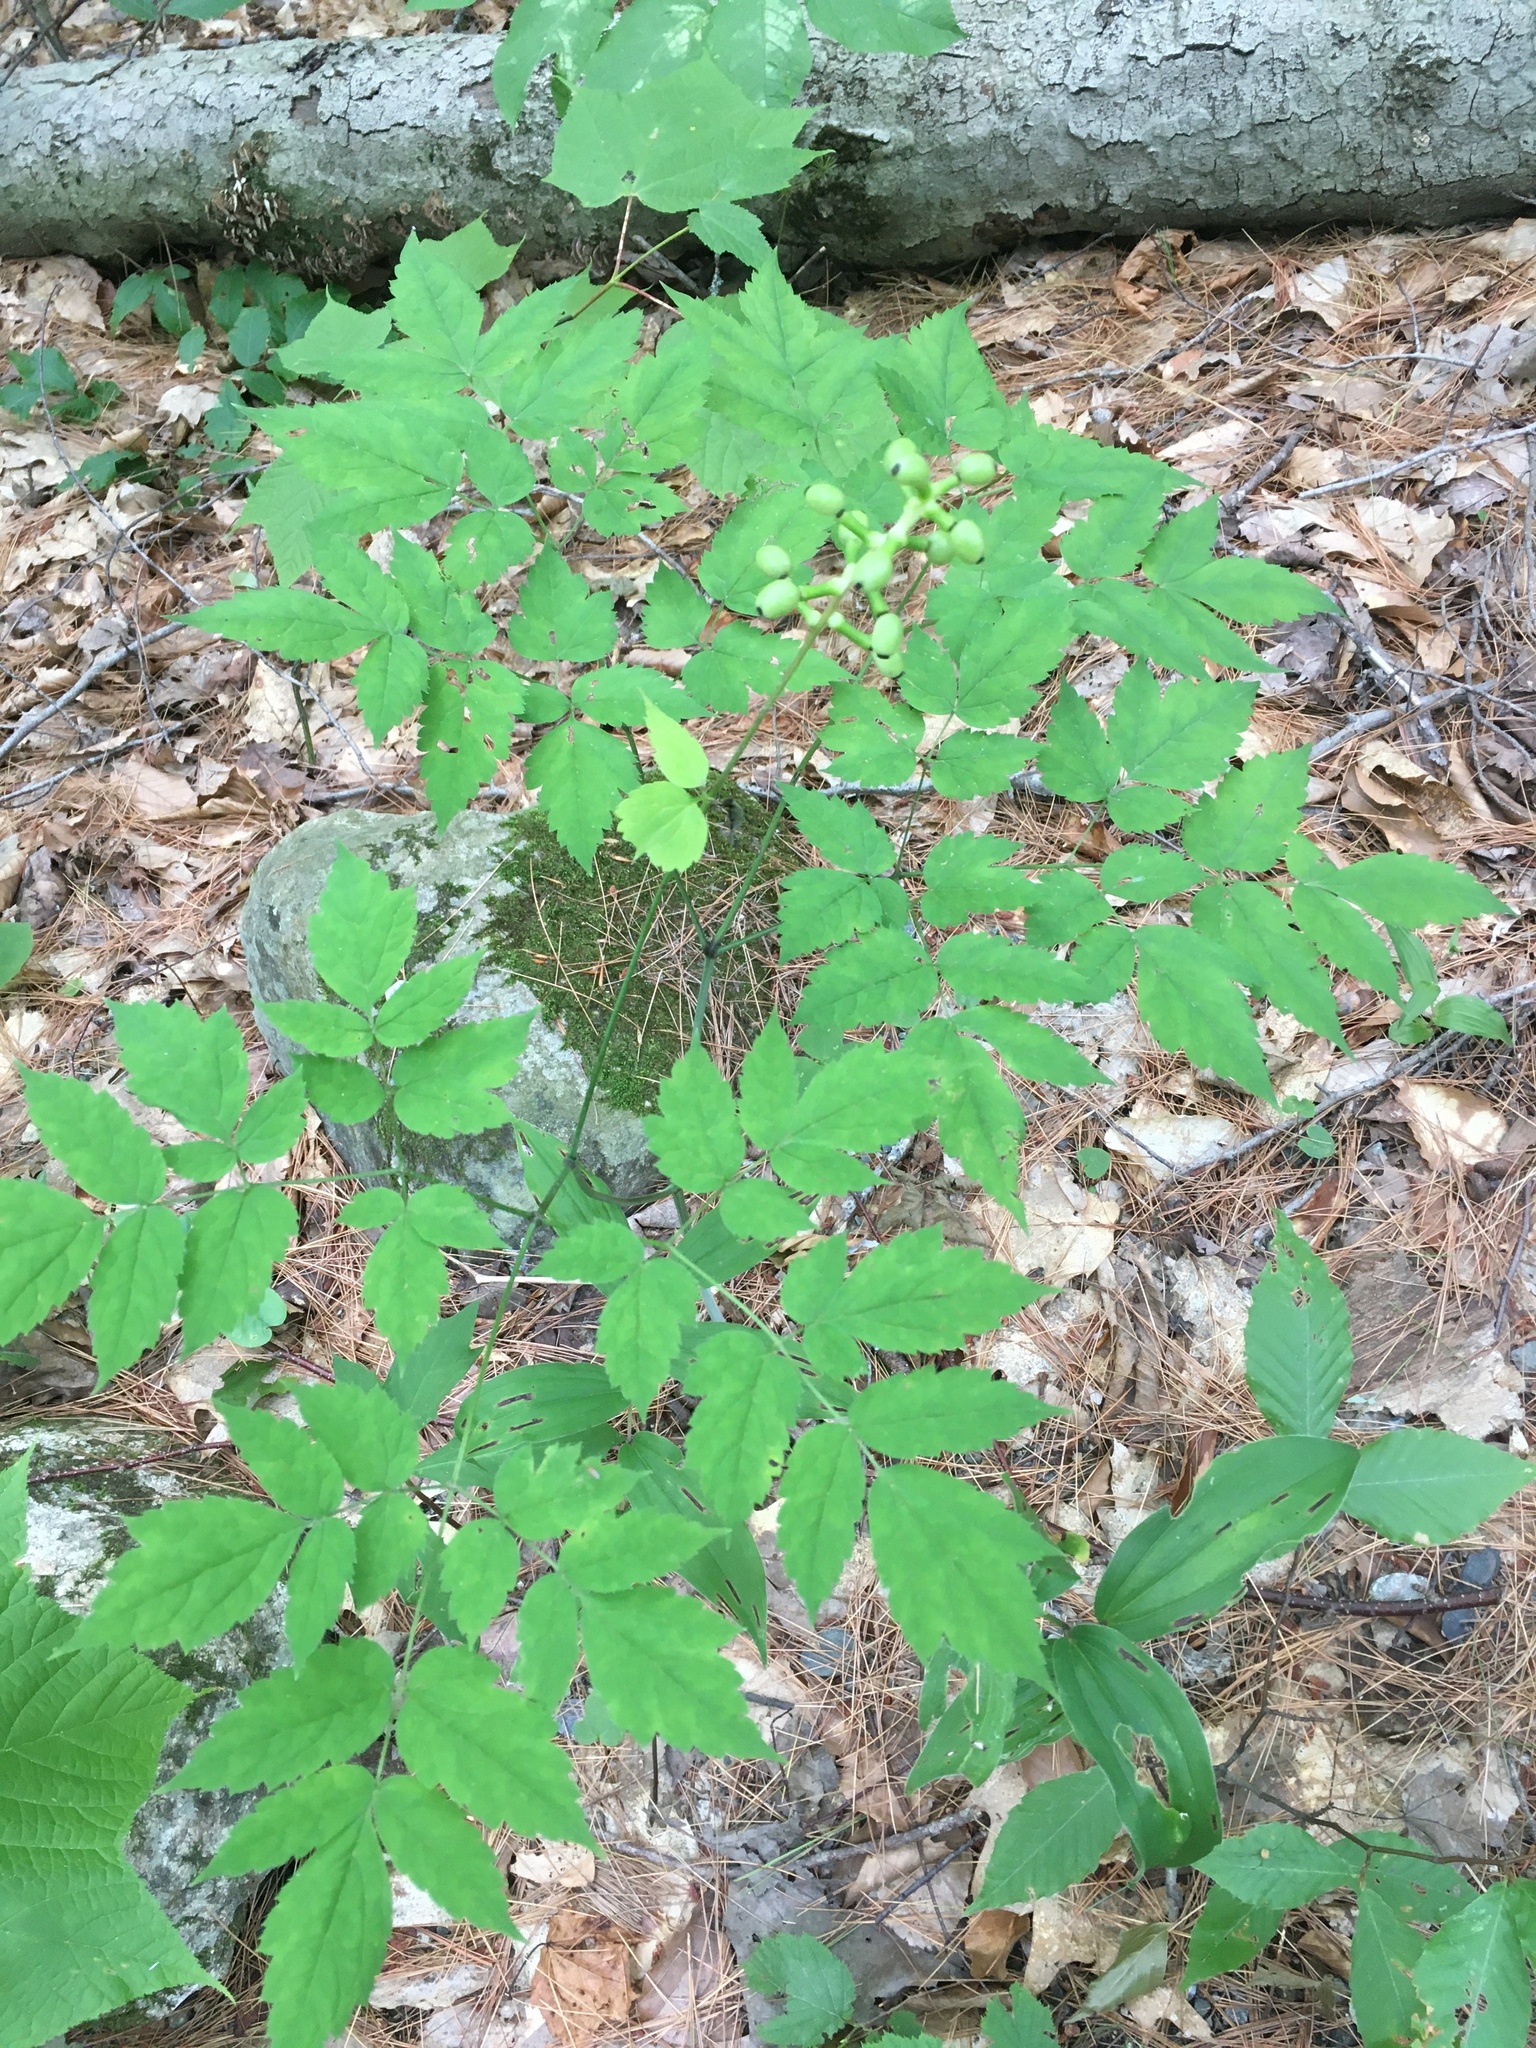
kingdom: Plantae
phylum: Tracheophyta
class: Magnoliopsida
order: Ranunculales
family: Ranunculaceae
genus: Actaea
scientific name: Actaea pachypoda
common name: Doll's-eyes
